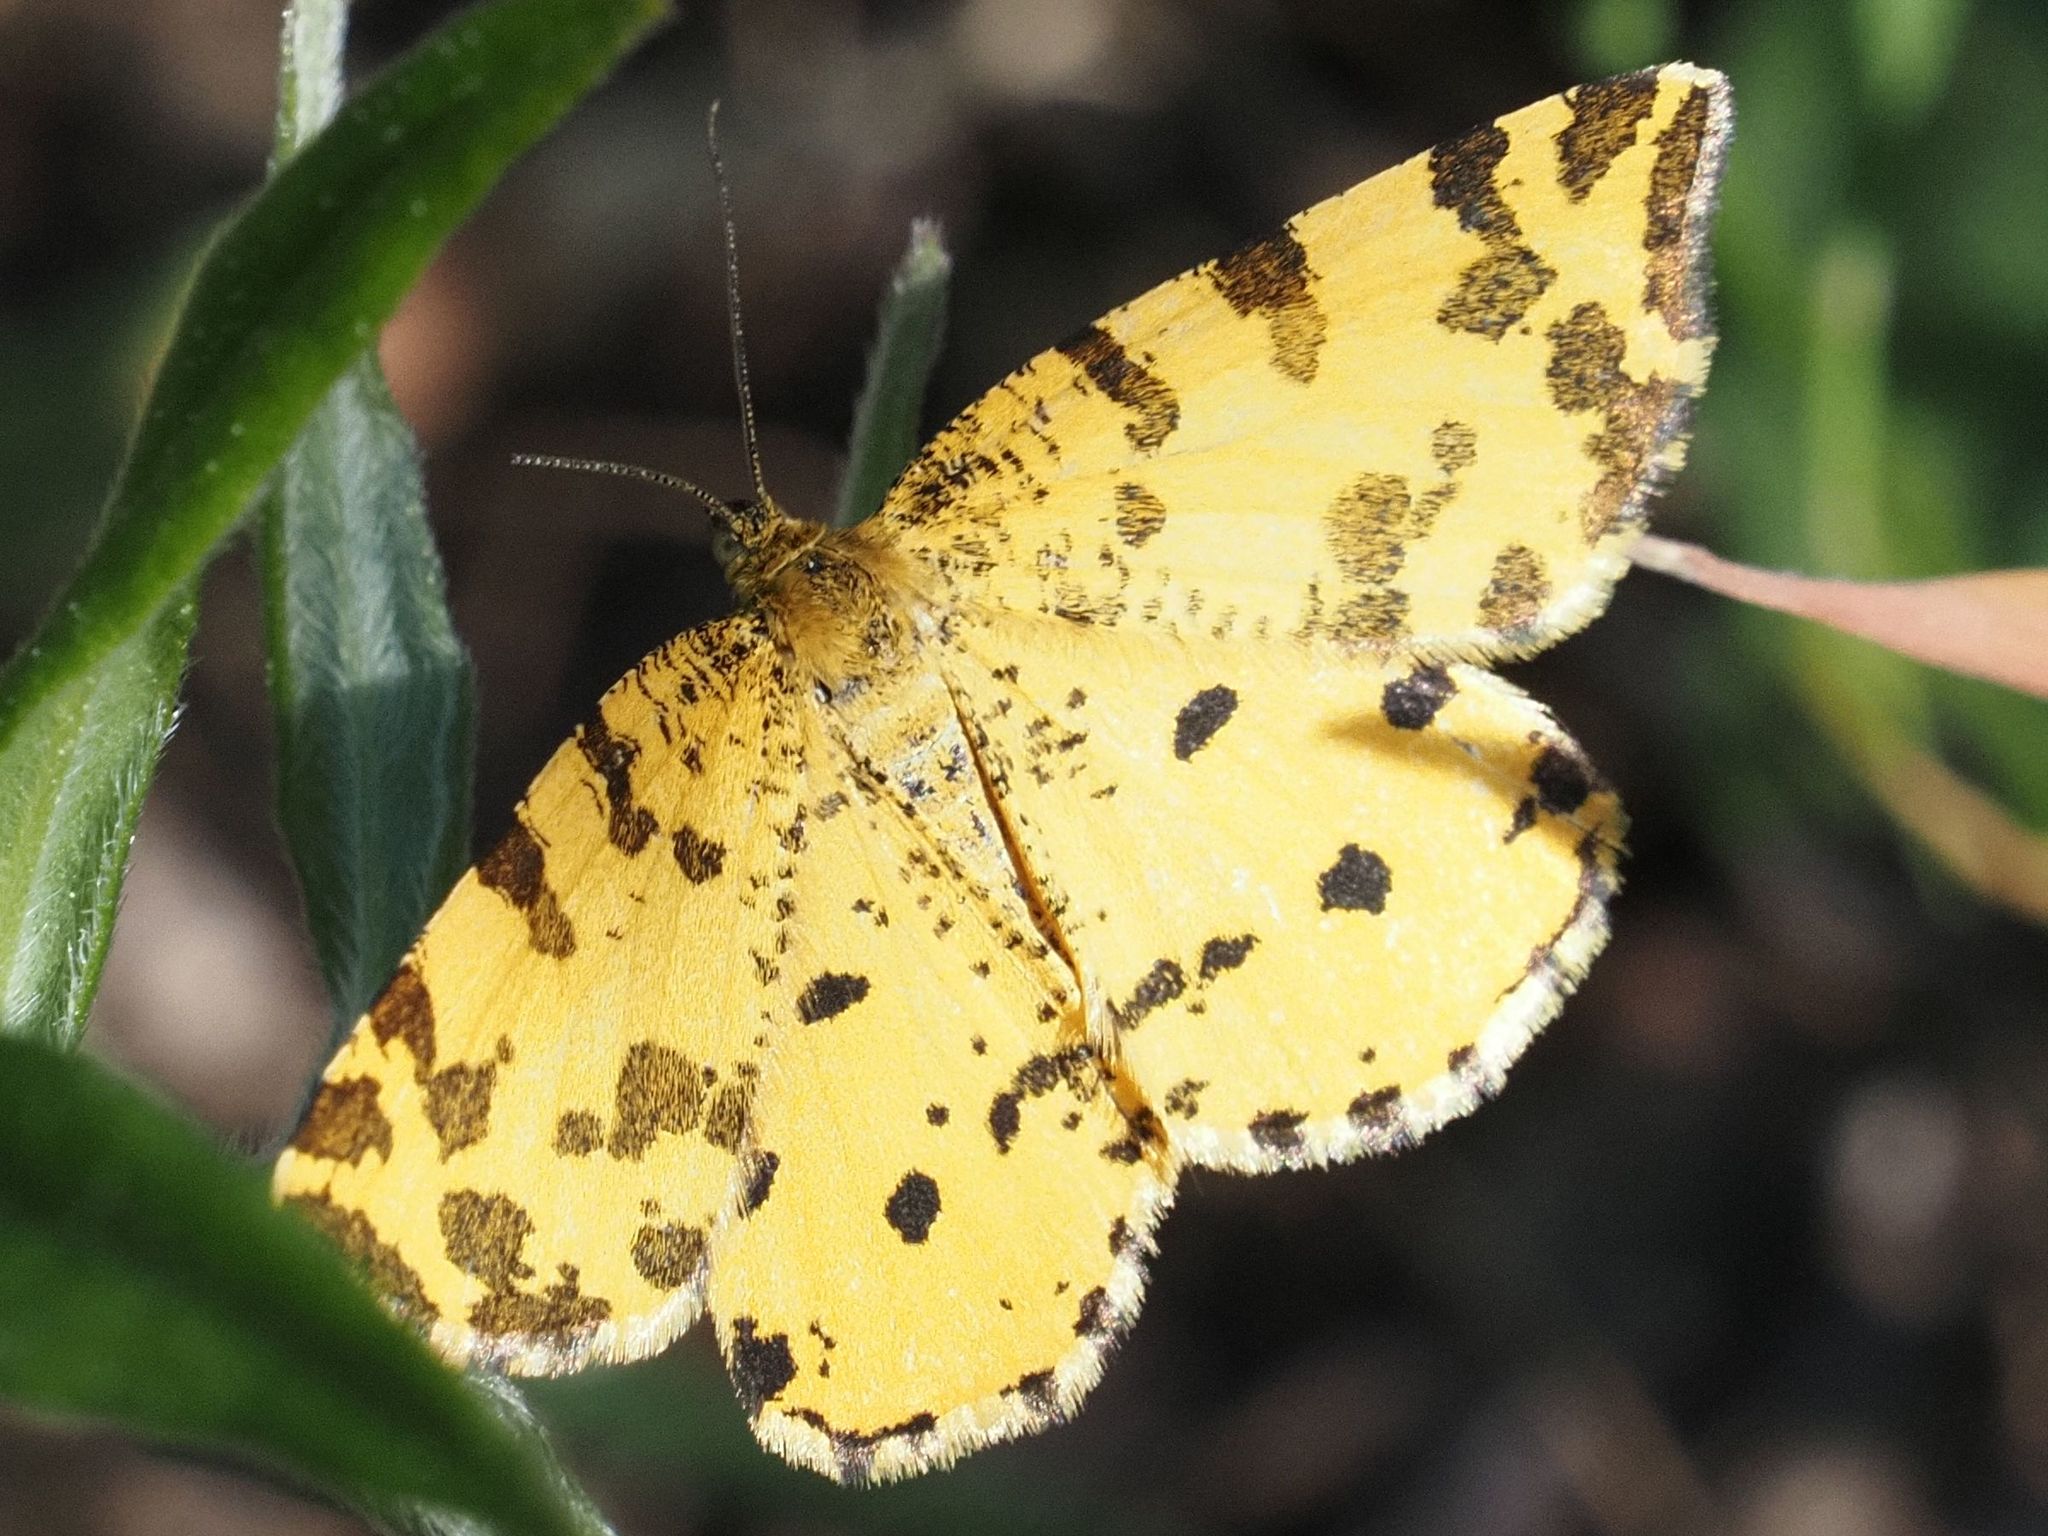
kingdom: Animalia
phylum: Arthropoda
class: Insecta
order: Lepidoptera
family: Geometridae
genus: Pseudopanthera
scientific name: Pseudopanthera macularia
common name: Speckled yellow
